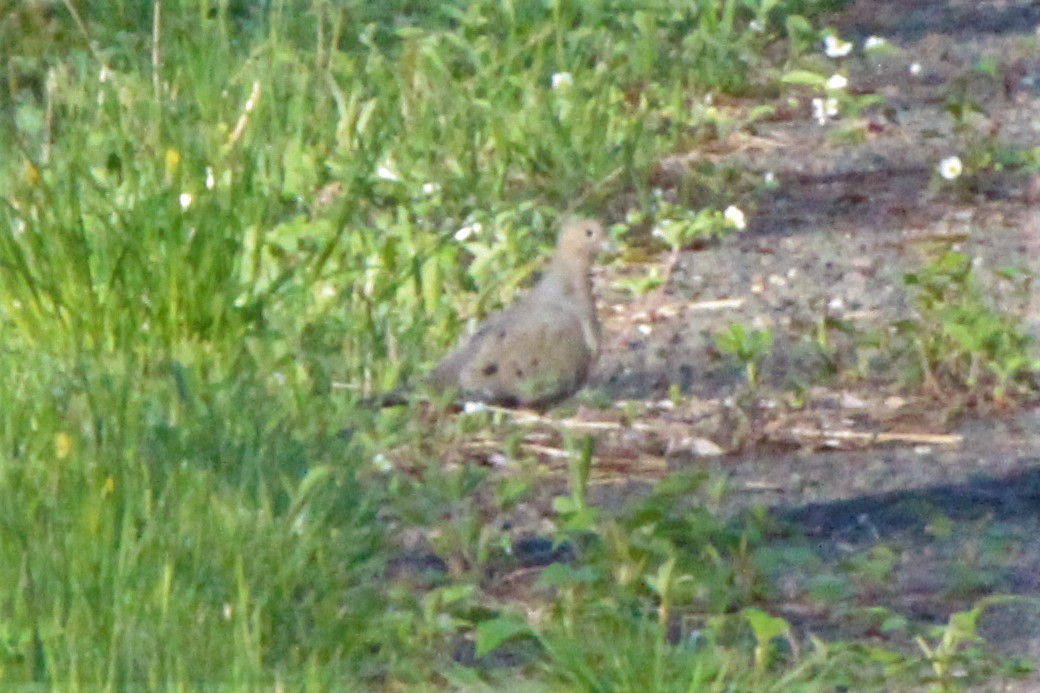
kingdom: Animalia
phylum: Chordata
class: Aves
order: Columbiformes
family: Columbidae
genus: Zenaida
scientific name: Zenaida macroura
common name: Mourning dove
